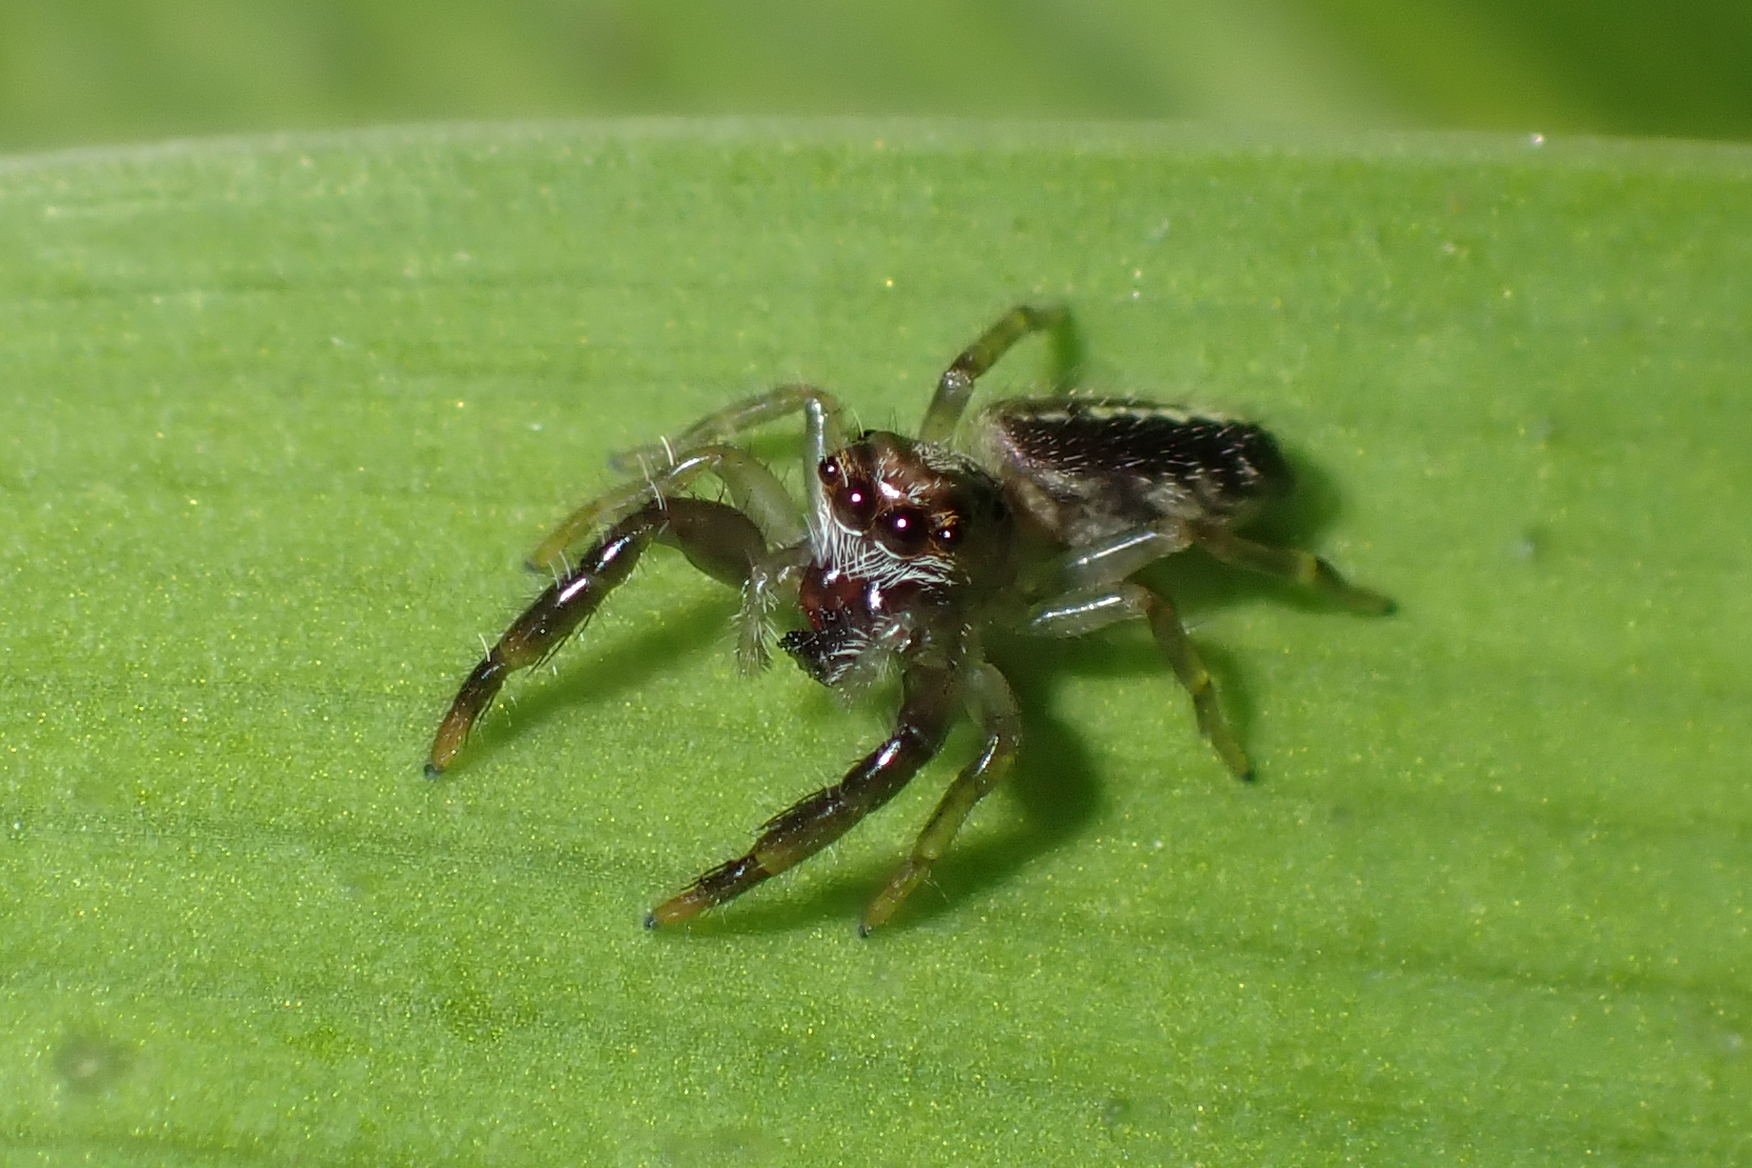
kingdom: Animalia
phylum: Arthropoda
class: Arachnida
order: Araneae
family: Salticidae
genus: Trite
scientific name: Trite planiceps
